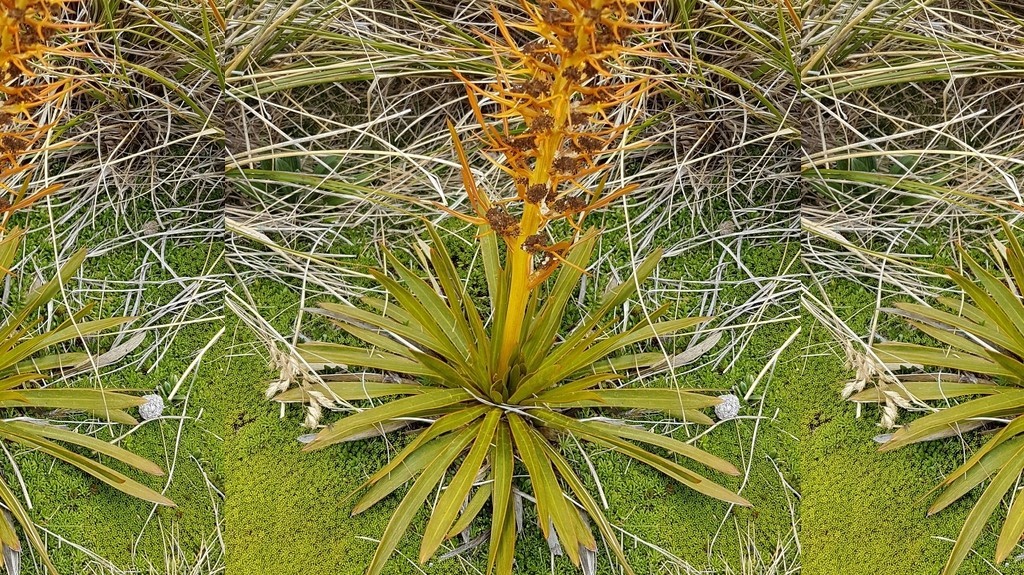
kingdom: Plantae
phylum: Tracheophyta
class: Magnoliopsida
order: Apiales
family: Apiaceae
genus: Aciphylla
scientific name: Aciphylla kirkii
